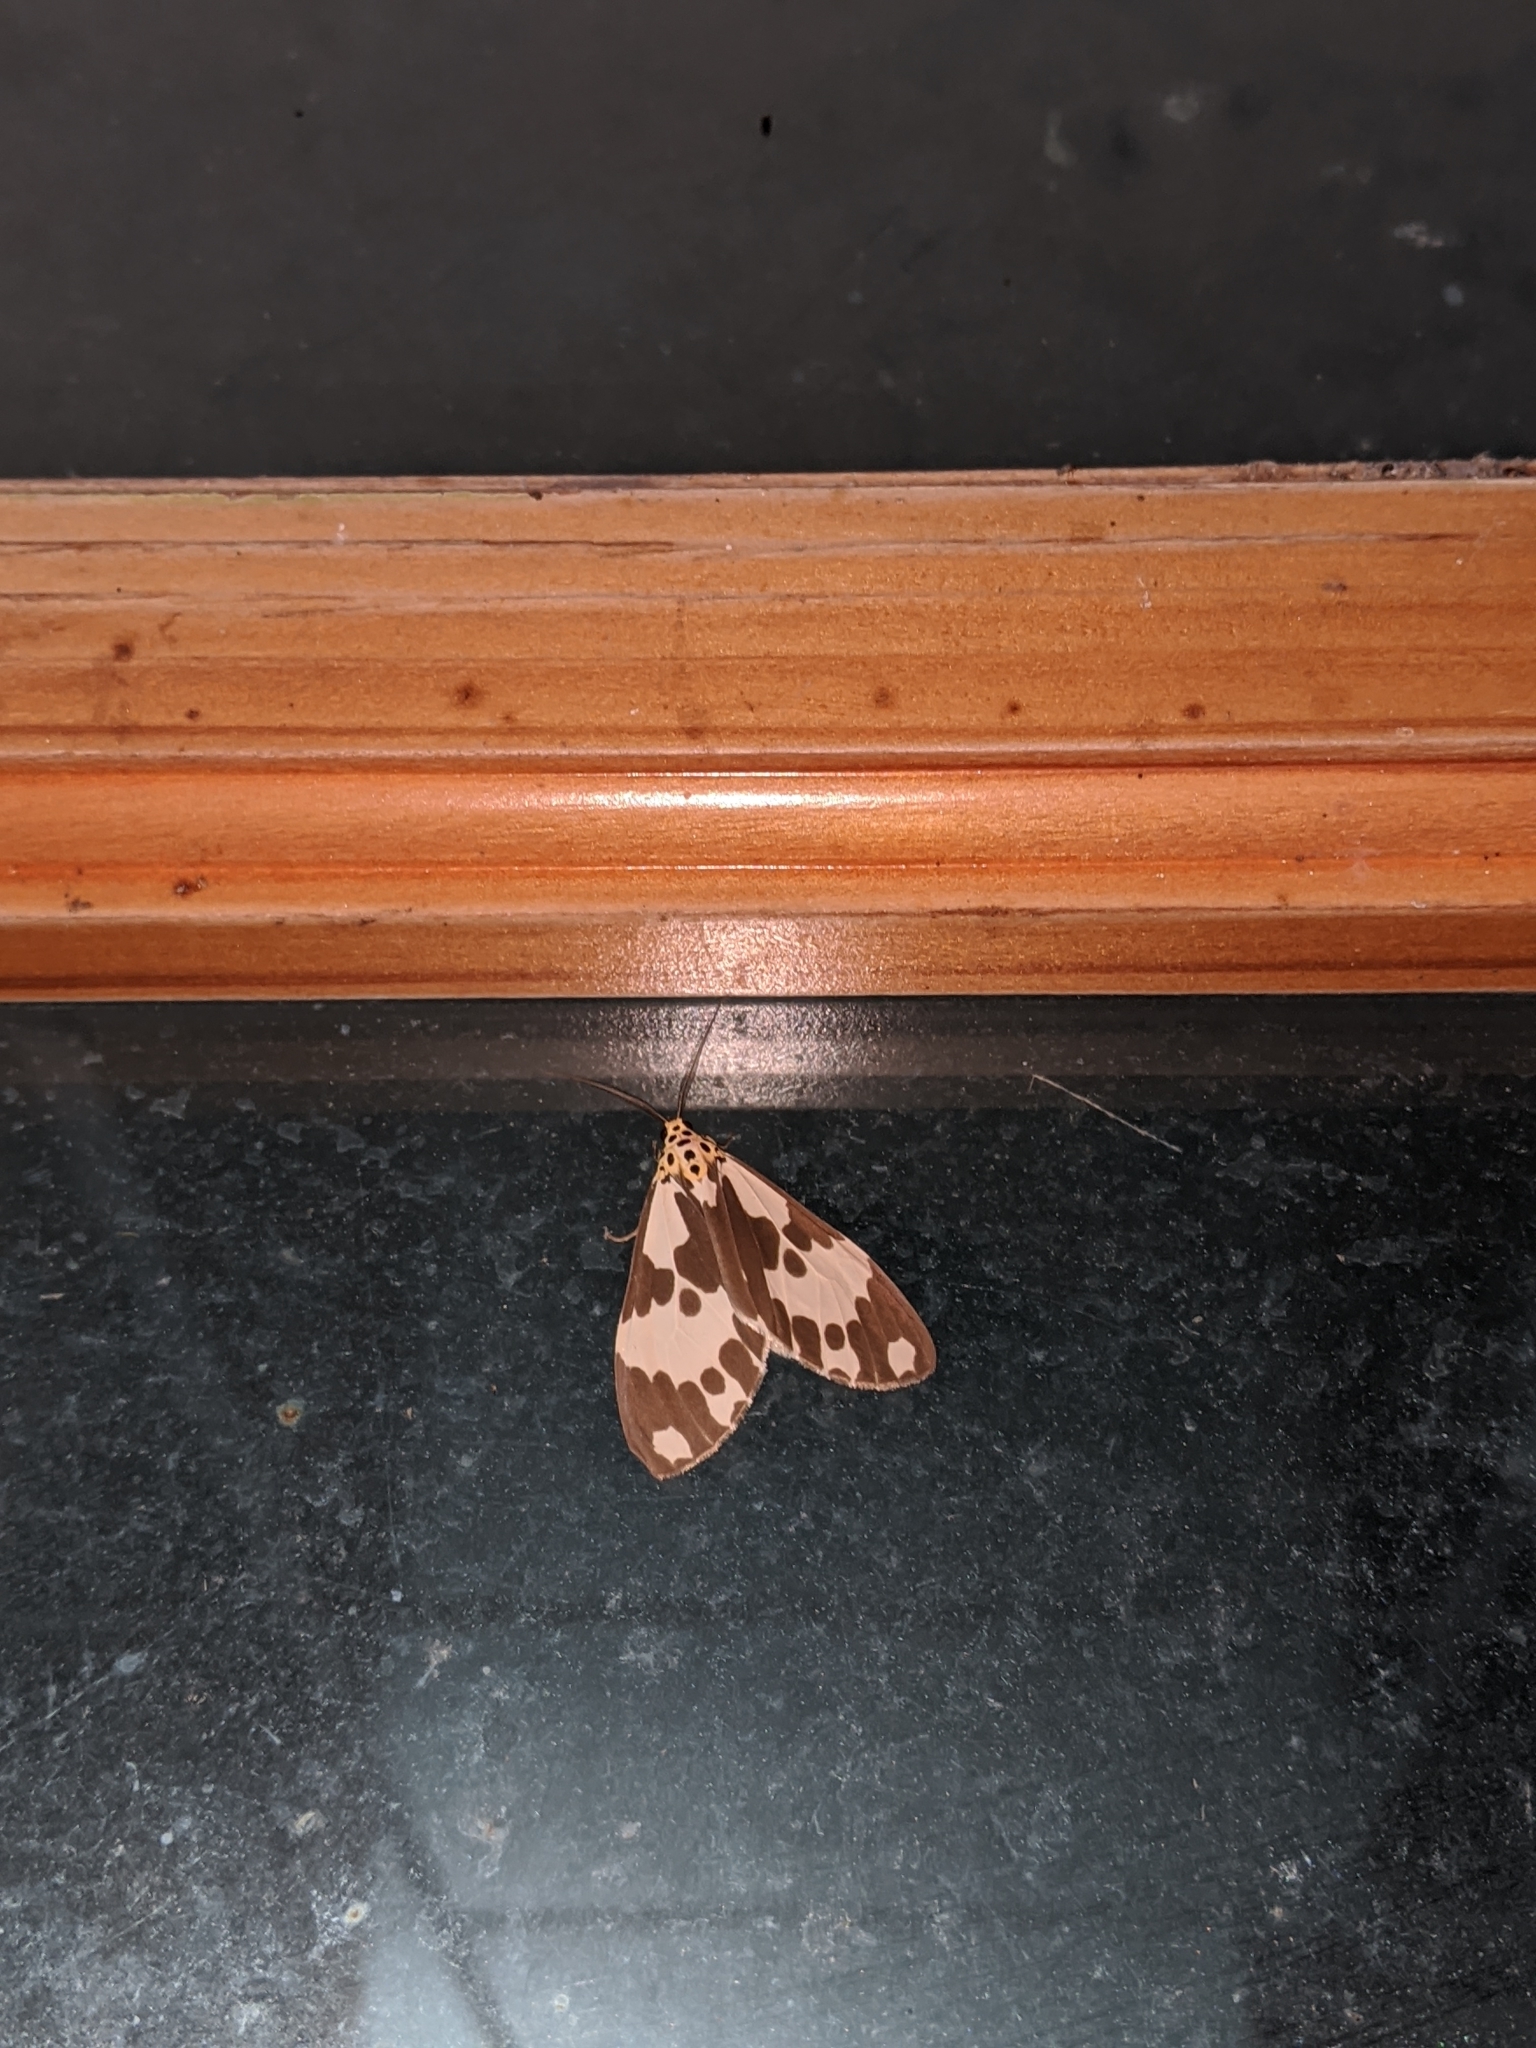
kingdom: Animalia
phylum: Arthropoda
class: Insecta
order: Lepidoptera
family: Erebidae
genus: Nyctemera
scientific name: Nyctemera carissima
